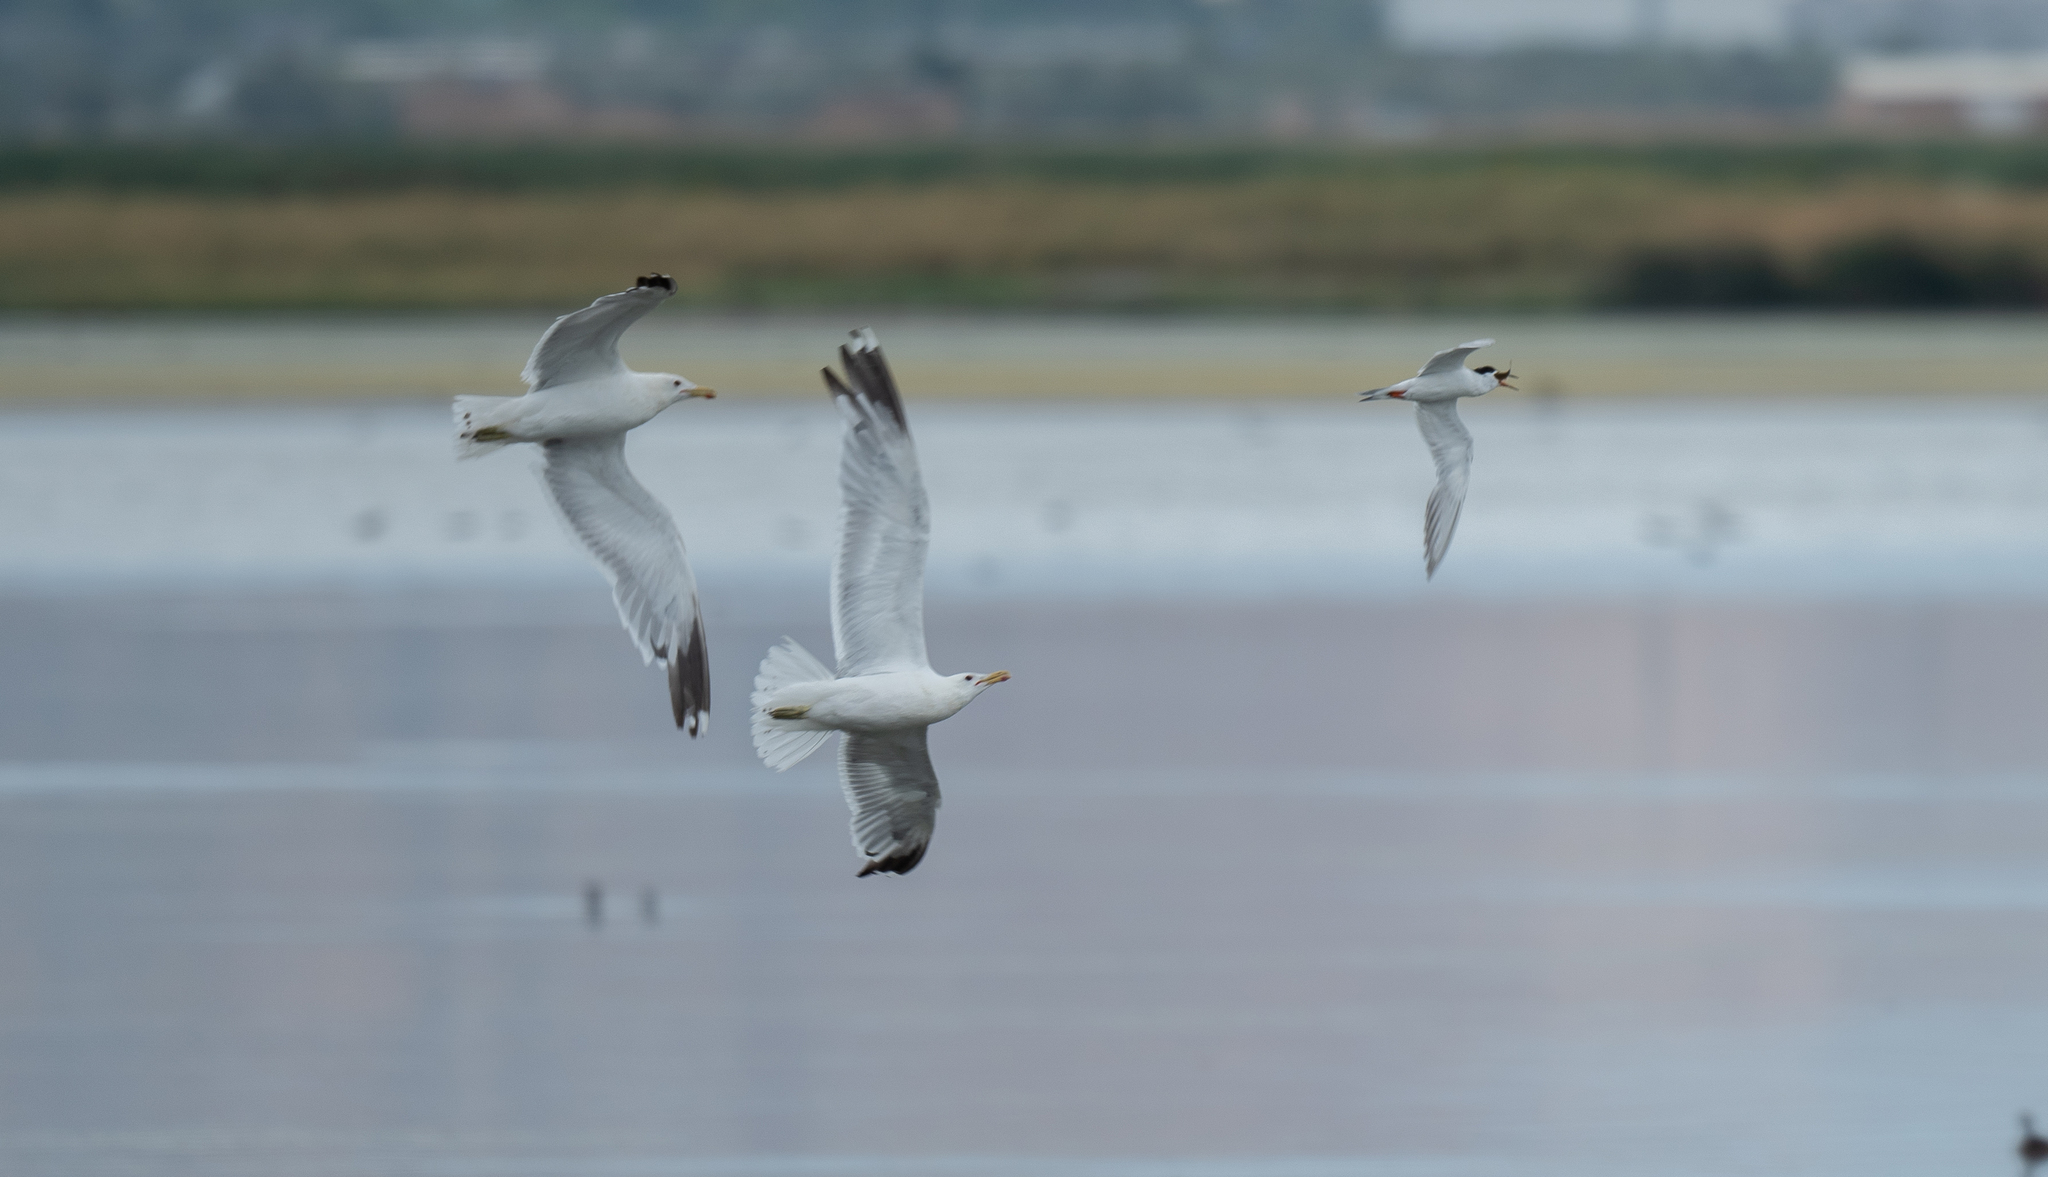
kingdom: Animalia
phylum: Chordata
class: Aves
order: Charadriiformes
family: Laridae
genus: Larus
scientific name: Larus californicus
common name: California gull
